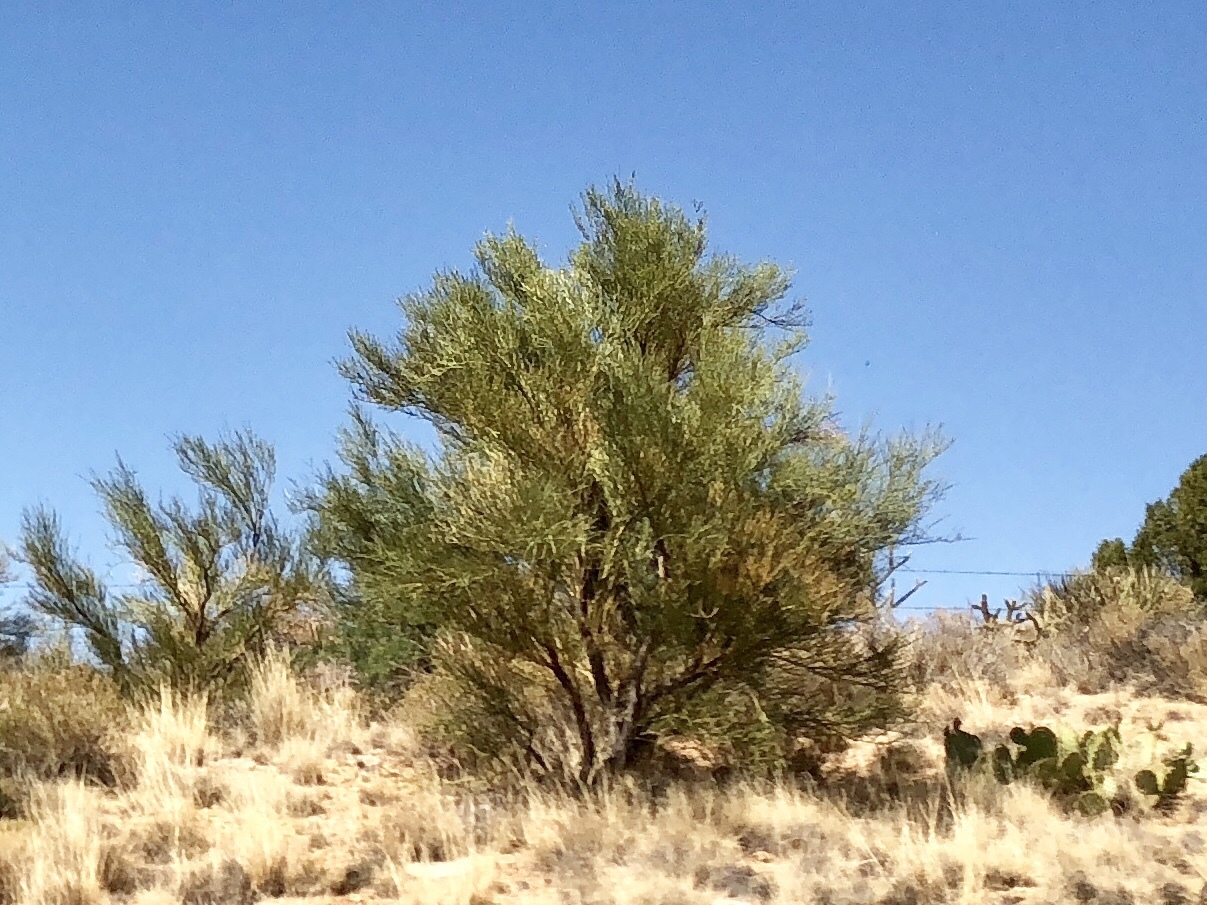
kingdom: Plantae
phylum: Tracheophyta
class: Magnoliopsida
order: Celastrales
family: Celastraceae
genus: Canotia
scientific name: Canotia holacantha
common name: Crucifixion thorns
